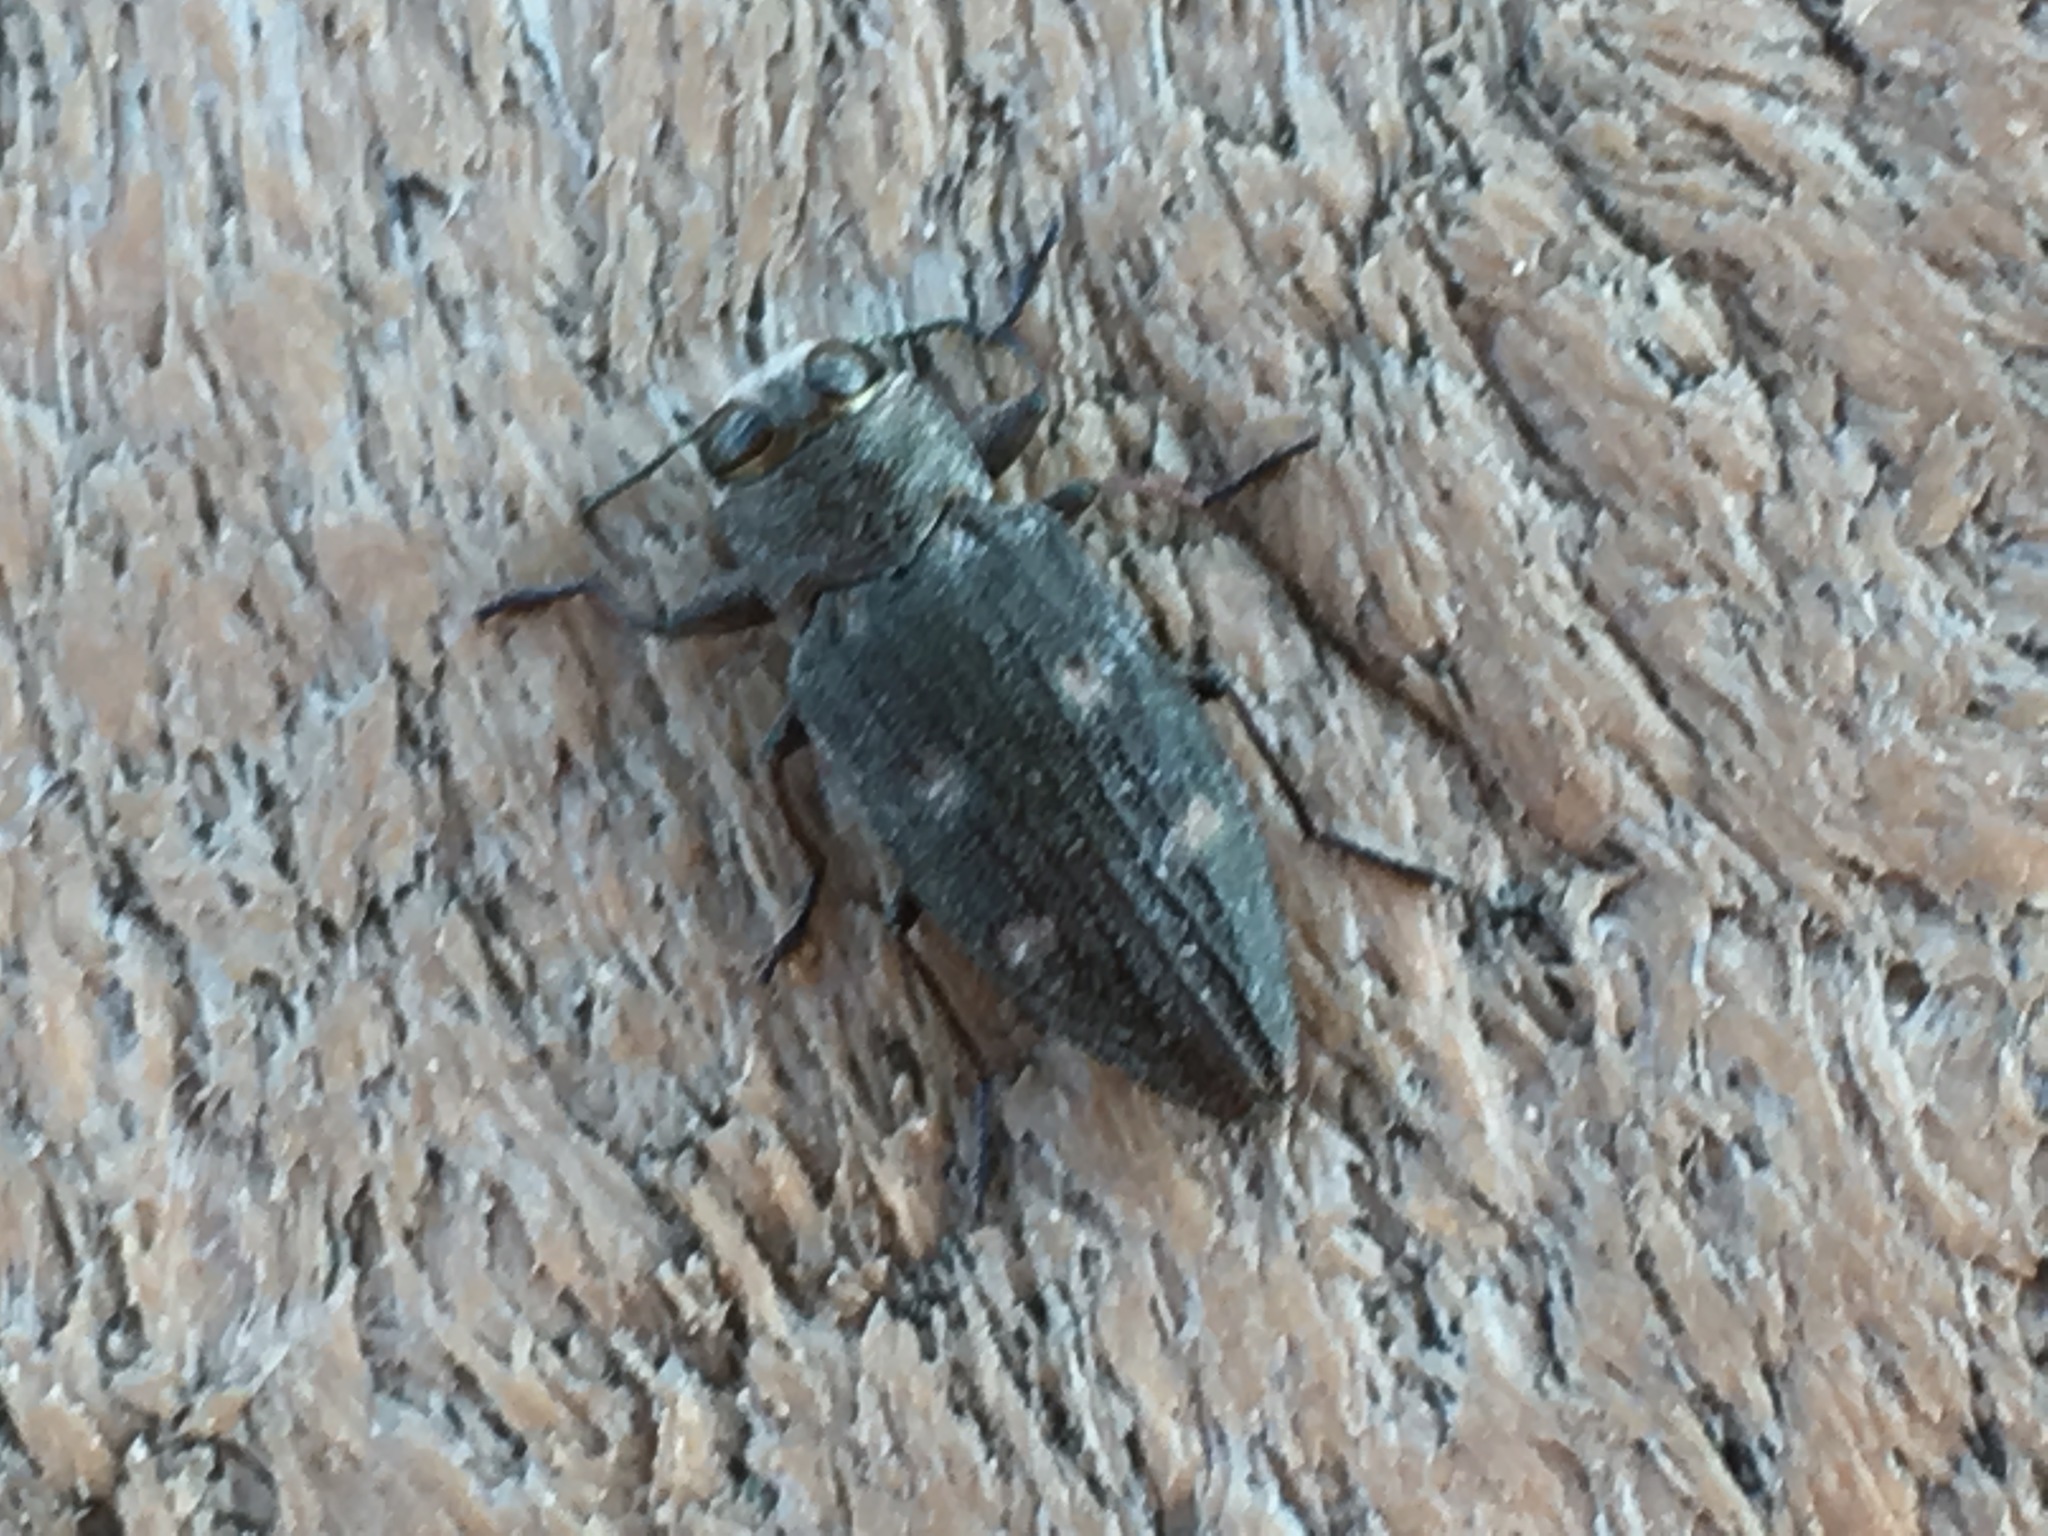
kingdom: Animalia
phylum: Arthropoda
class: Insecta
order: Coleoptera
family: Buprestidae
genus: Chrysobothris
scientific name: Chrysobothris sexsignata
